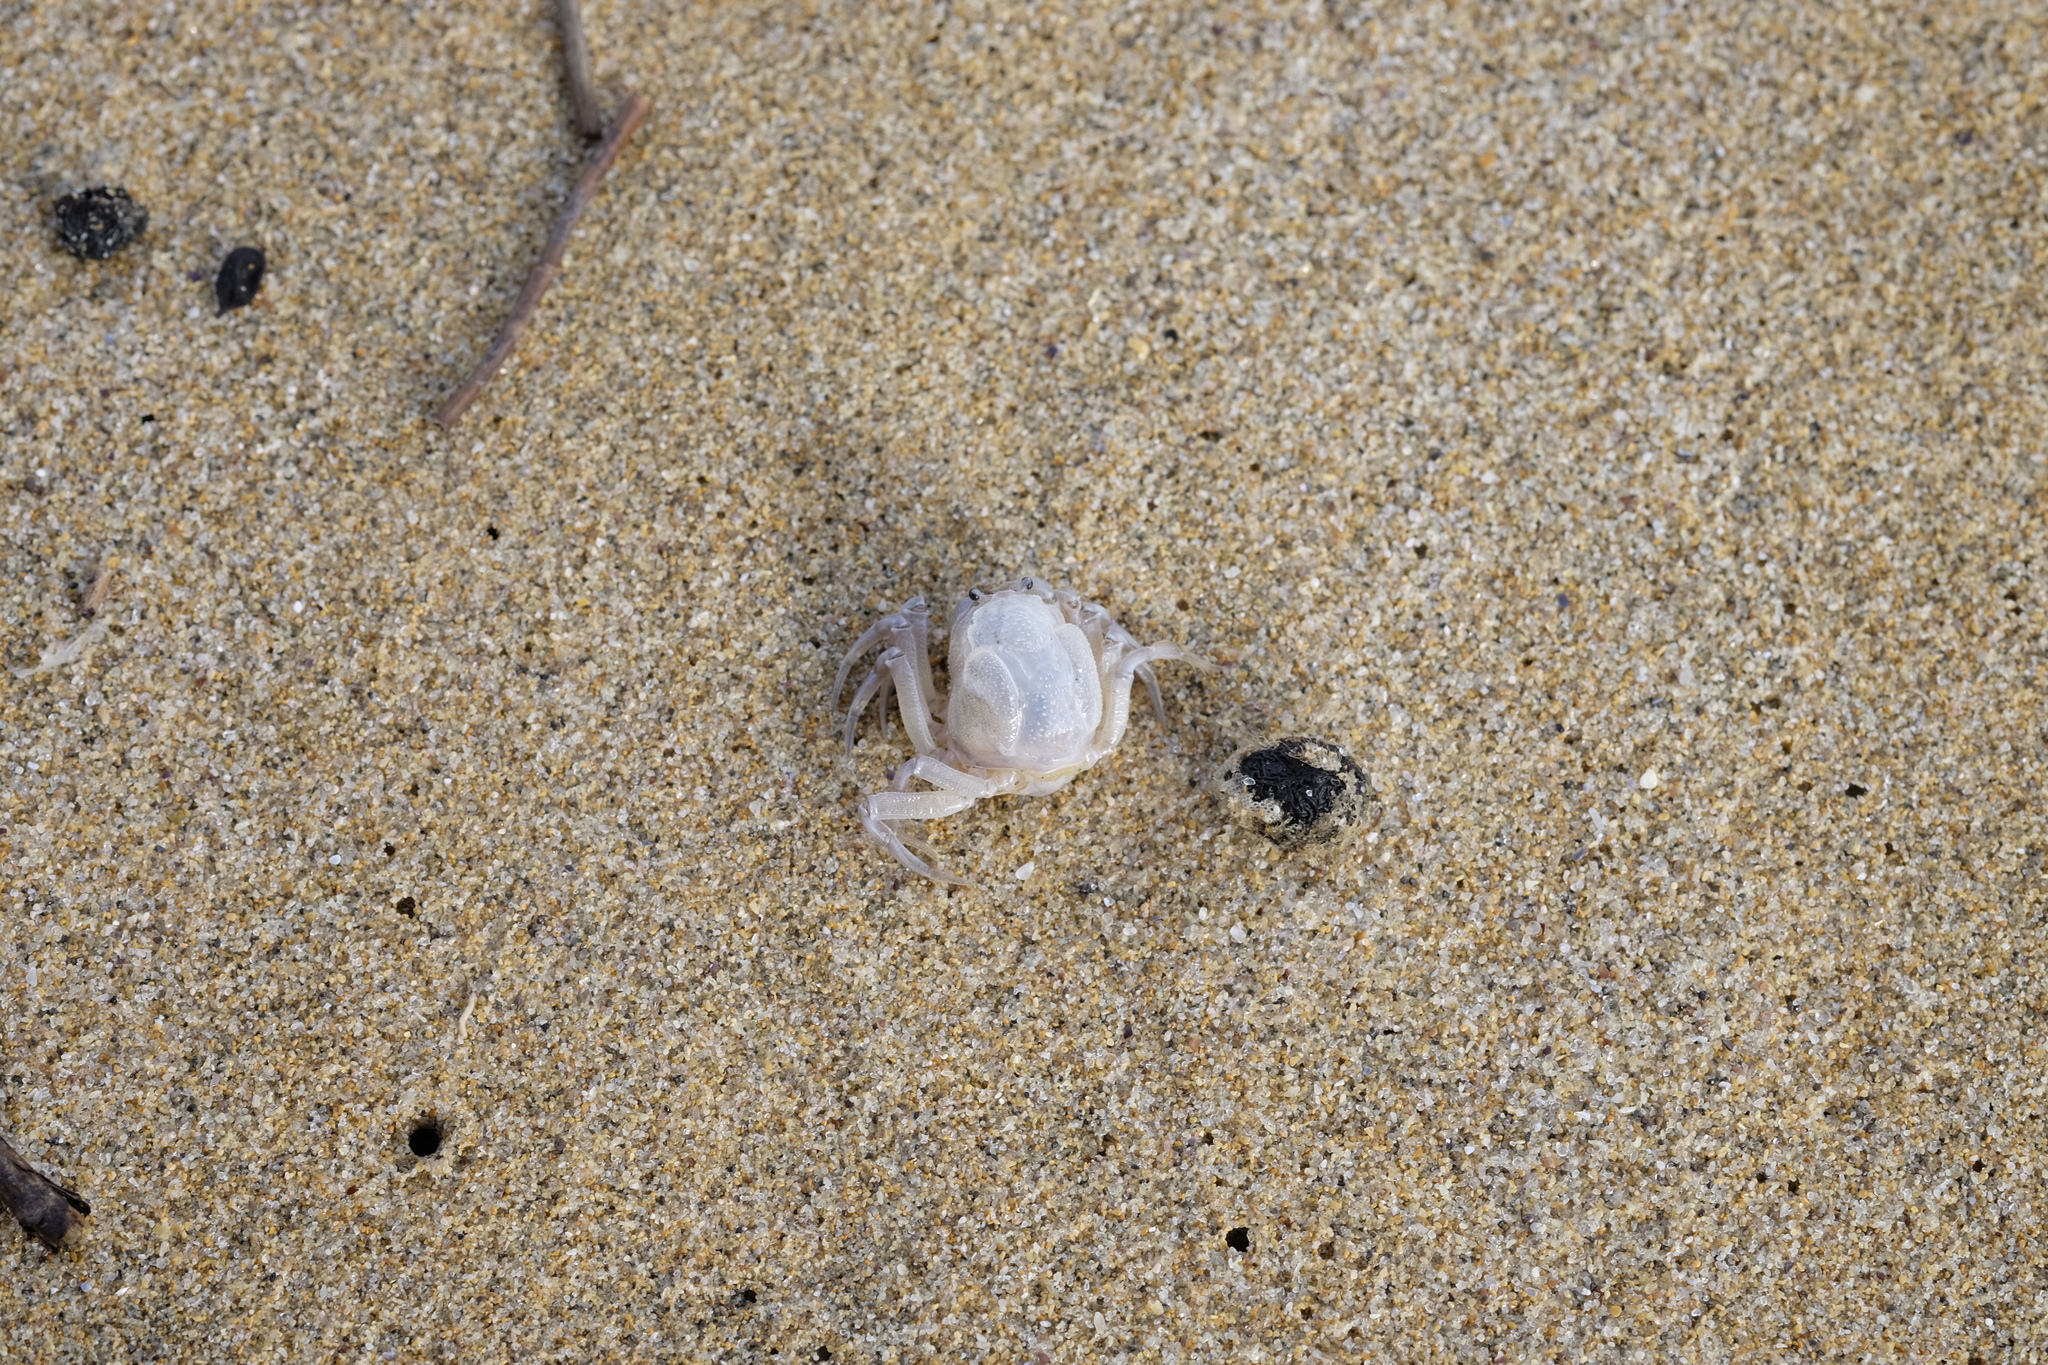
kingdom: Animalia
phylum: Arthropoda
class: Malacostraca
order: Decapoda
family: Mictyridae
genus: Mictyris
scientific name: Mictyris platycheles
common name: Dark blue soldier crab
